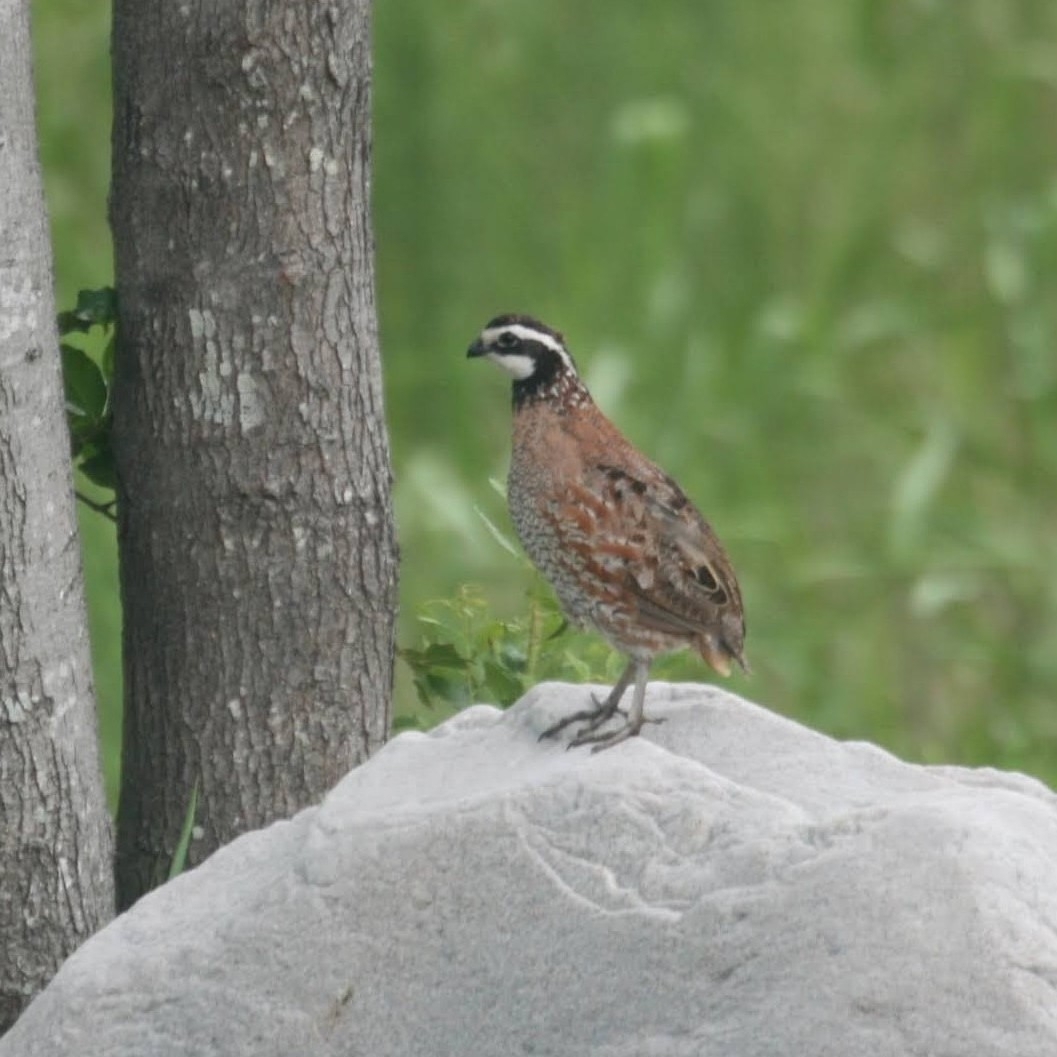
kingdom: Animalia
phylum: Chordata
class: Aves
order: Galliformes
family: Odontophoridae
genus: Colinus
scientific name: Colinus virginianus
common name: Northern bobwhite
